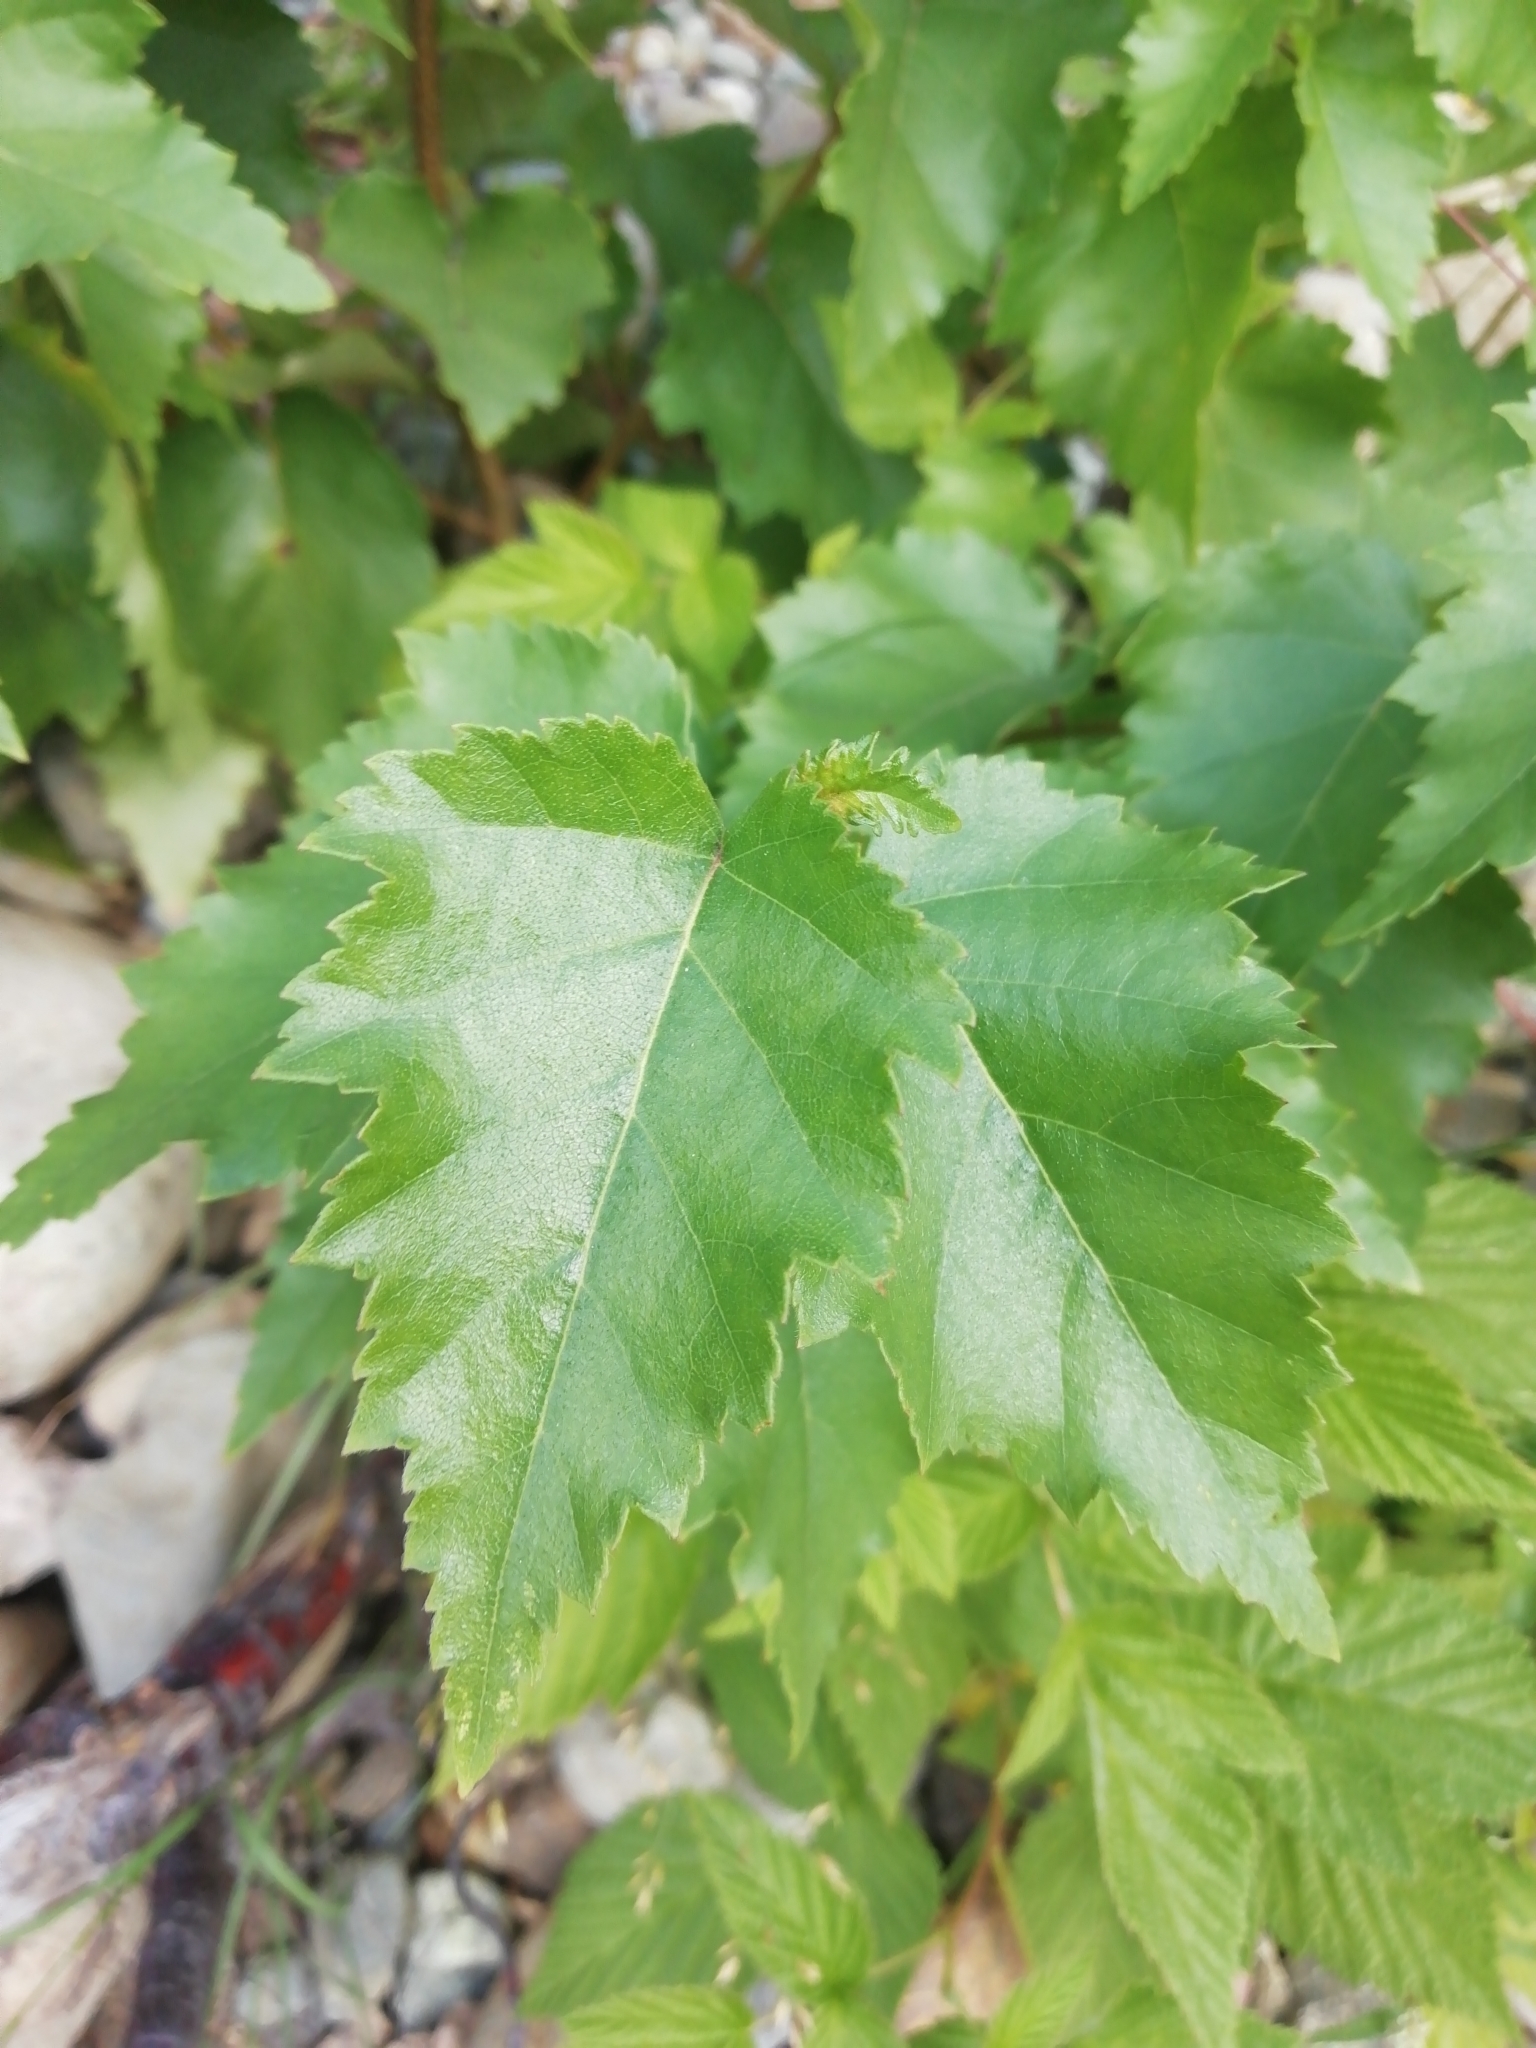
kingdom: Plantae
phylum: Tracheophyta
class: Magnoliopsida
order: Fagales
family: Betulaceae
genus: Betula
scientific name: Betula pendula
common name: Silver birch
